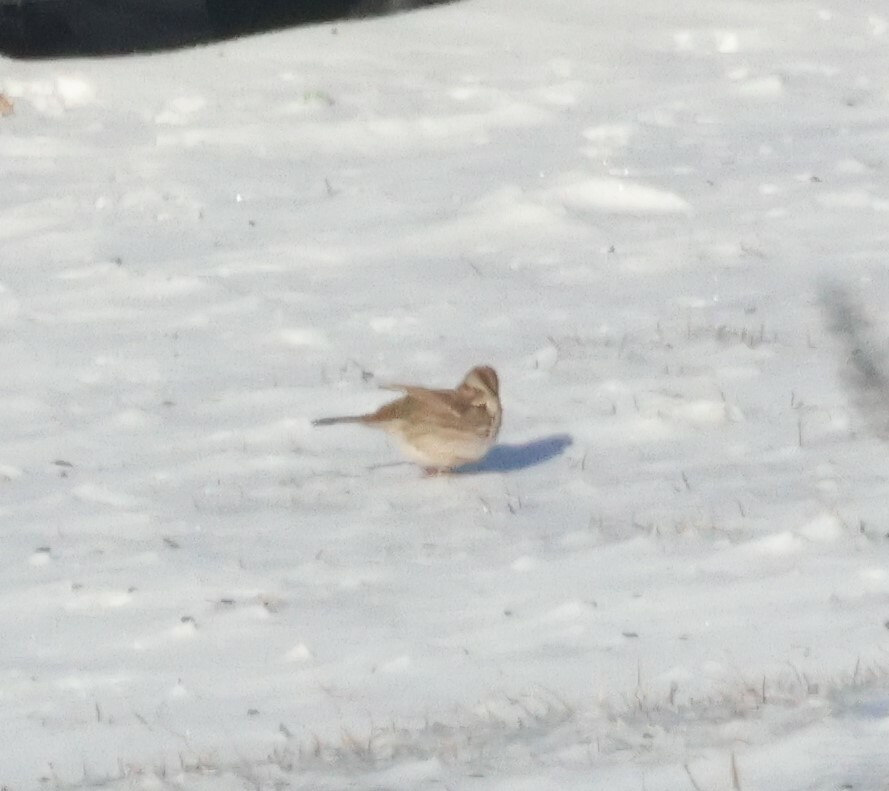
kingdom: Animalia
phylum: Chordata
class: Aves
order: Passeriformes
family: Passerellidae
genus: Melospiza
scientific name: Melospiza melodia
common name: Song sparrow
